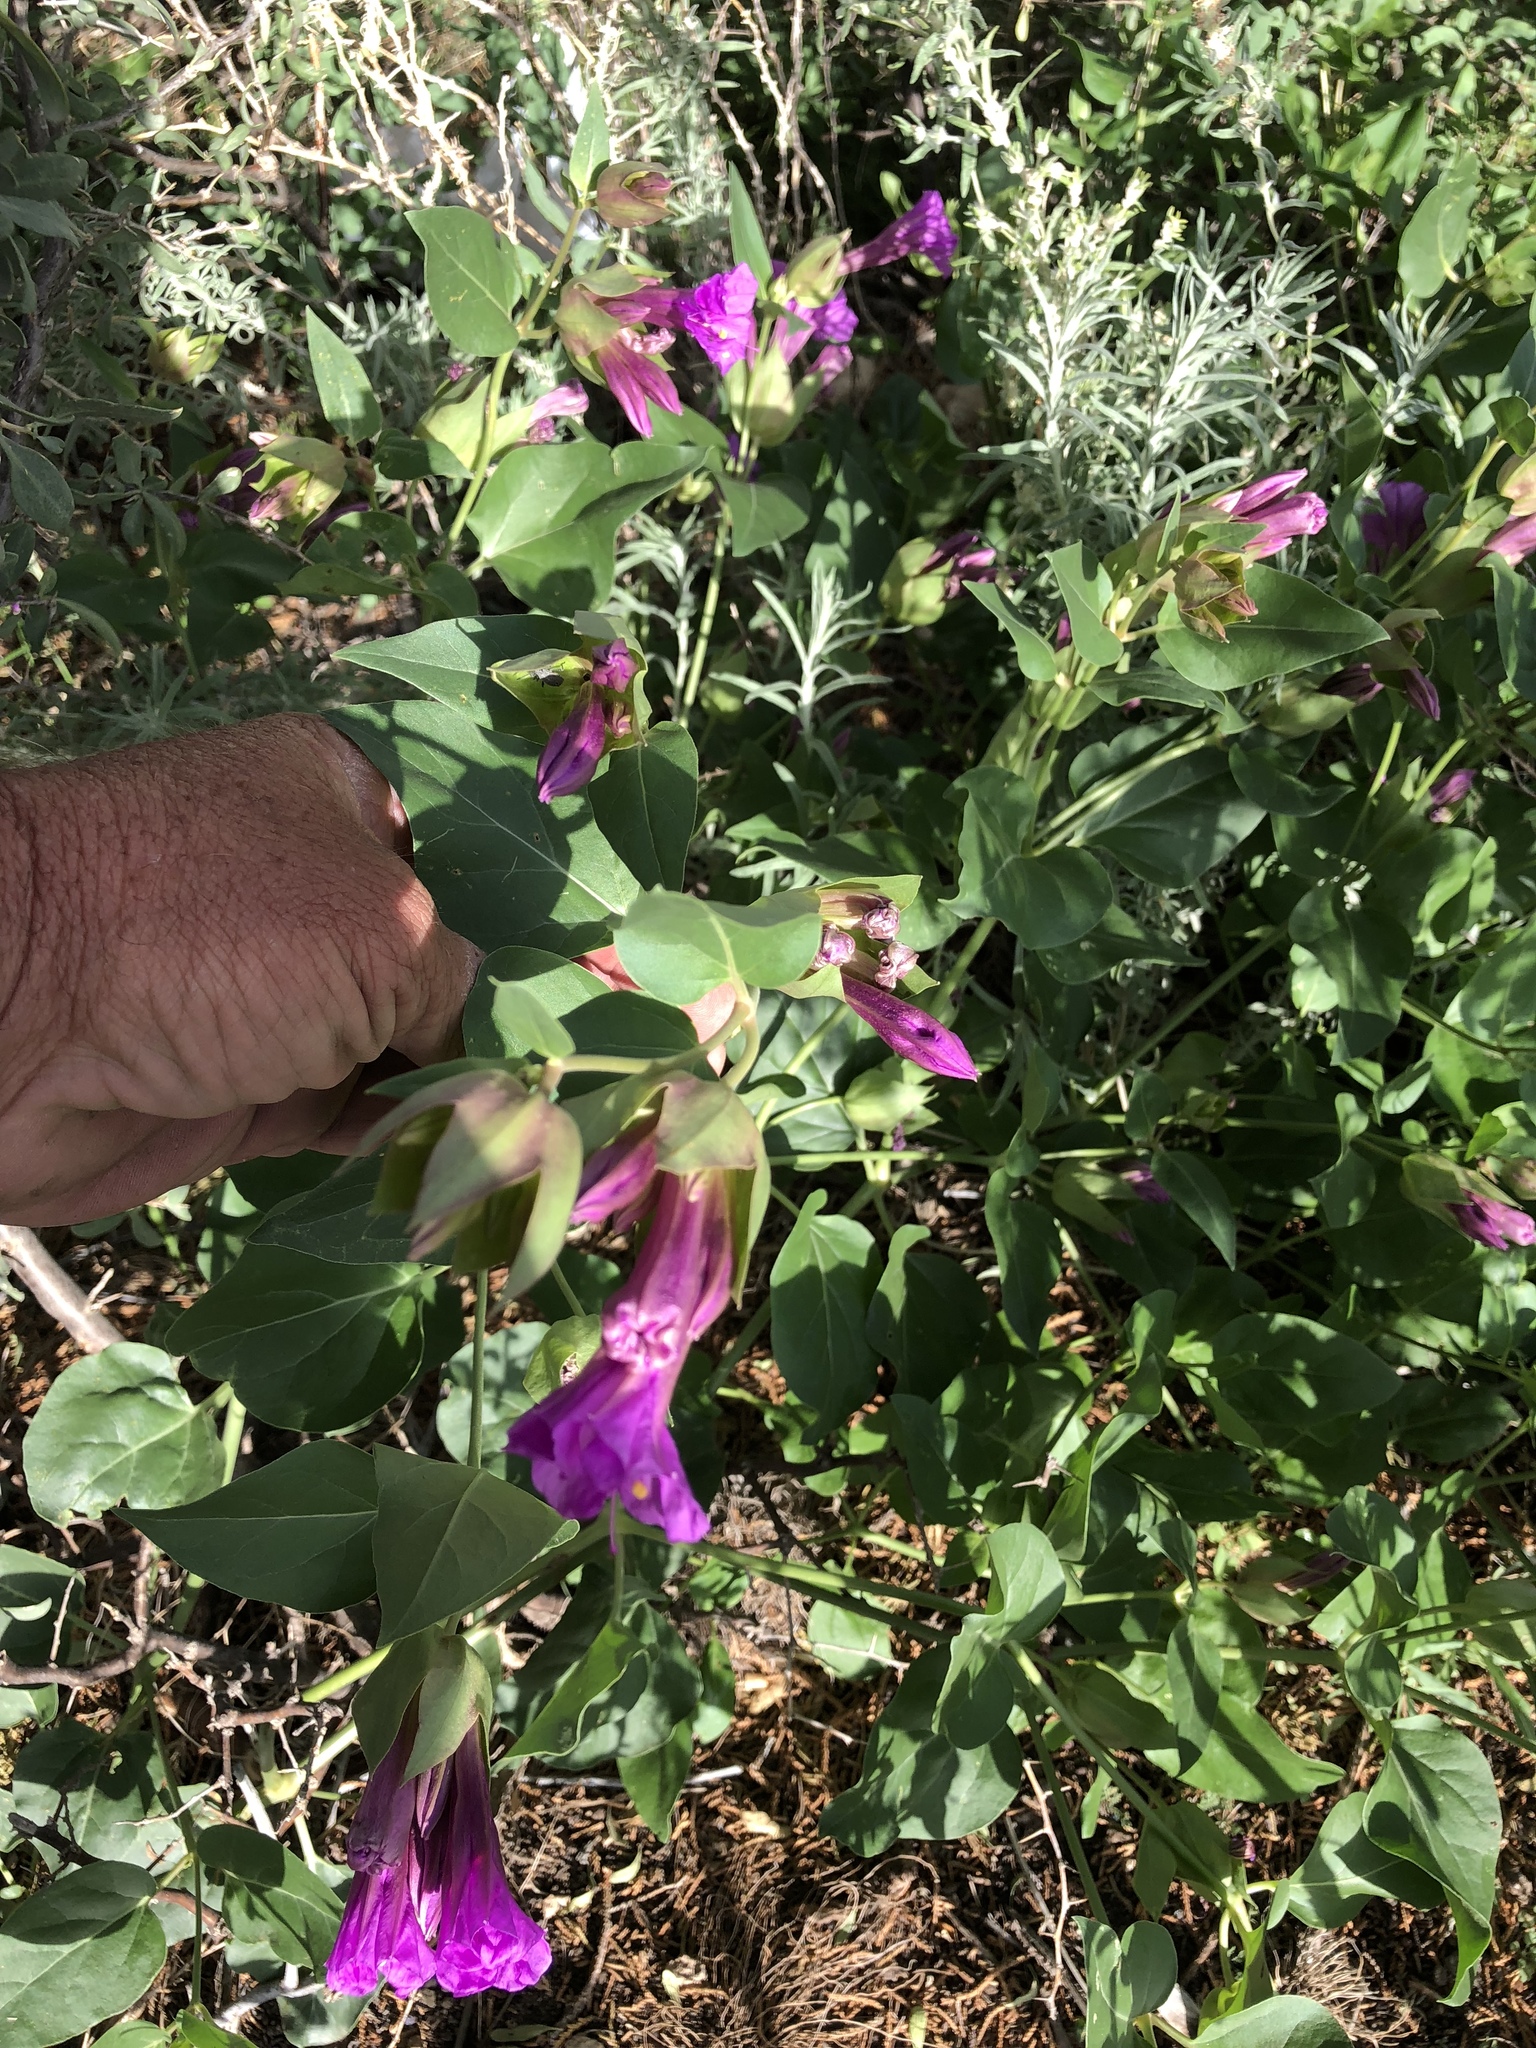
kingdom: Plantae
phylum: Tracheophyta
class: Magnoliopsida
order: Caryophyllales
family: Nyctaginaceae
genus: Mirabilis
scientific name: Mirabilis multiflora
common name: Froebel's four-o'clock
